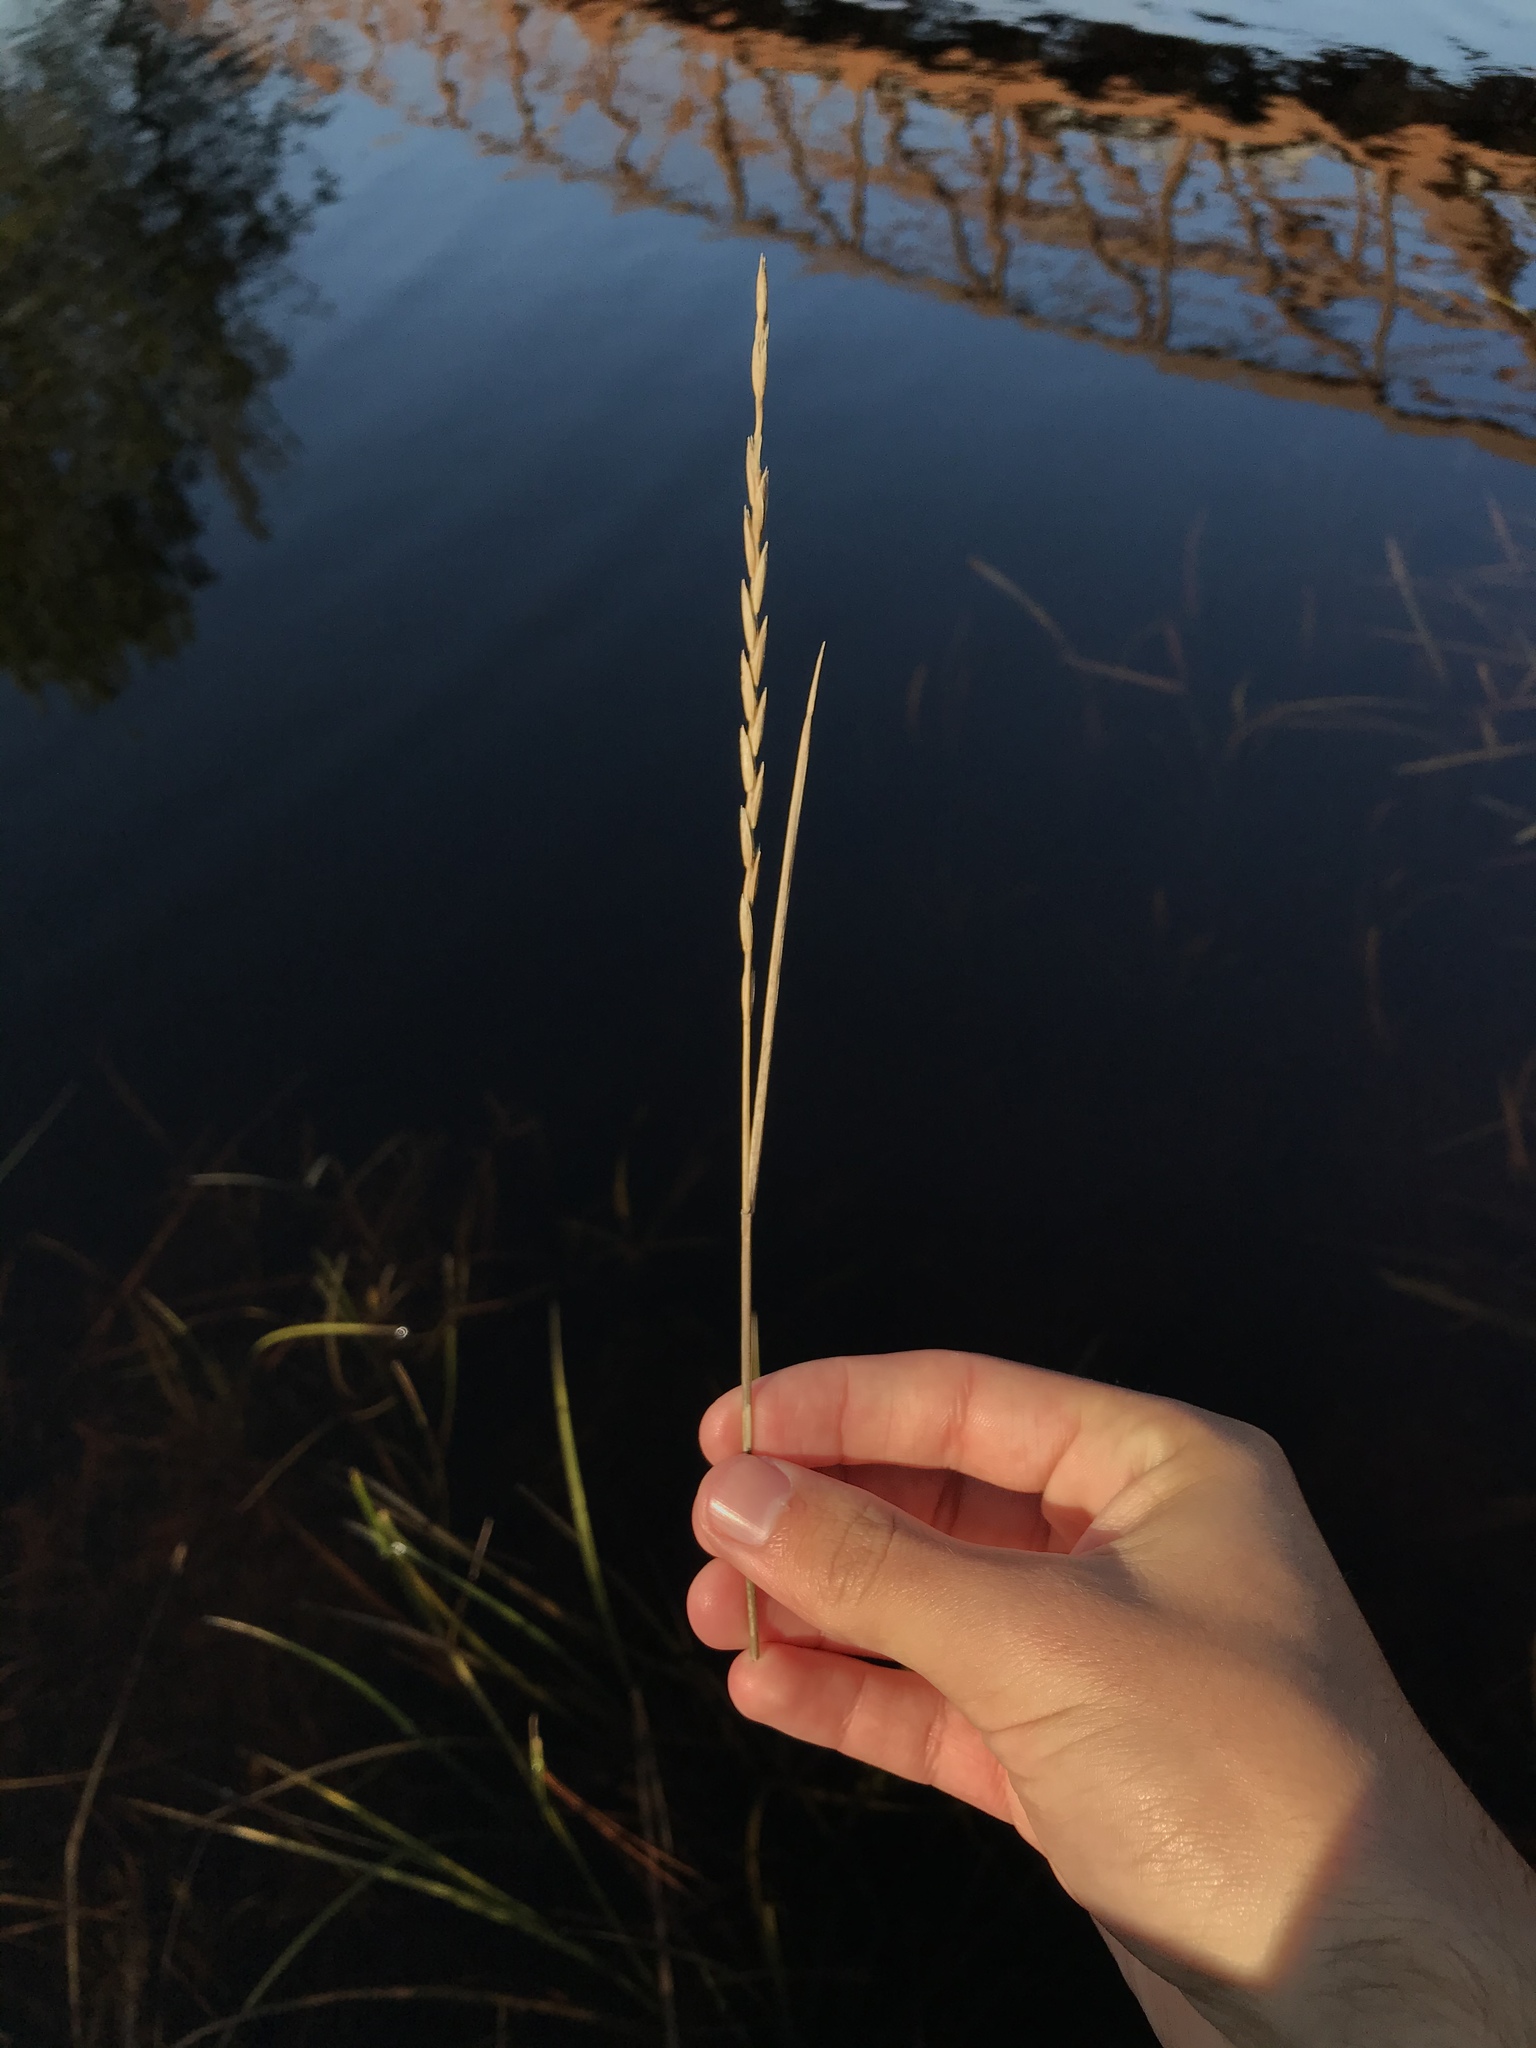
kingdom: Plantae
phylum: Tracheophyta
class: Liliopsida
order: Poales
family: Poaceae
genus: Elymus
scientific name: Elymus repens
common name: Quackgrass
